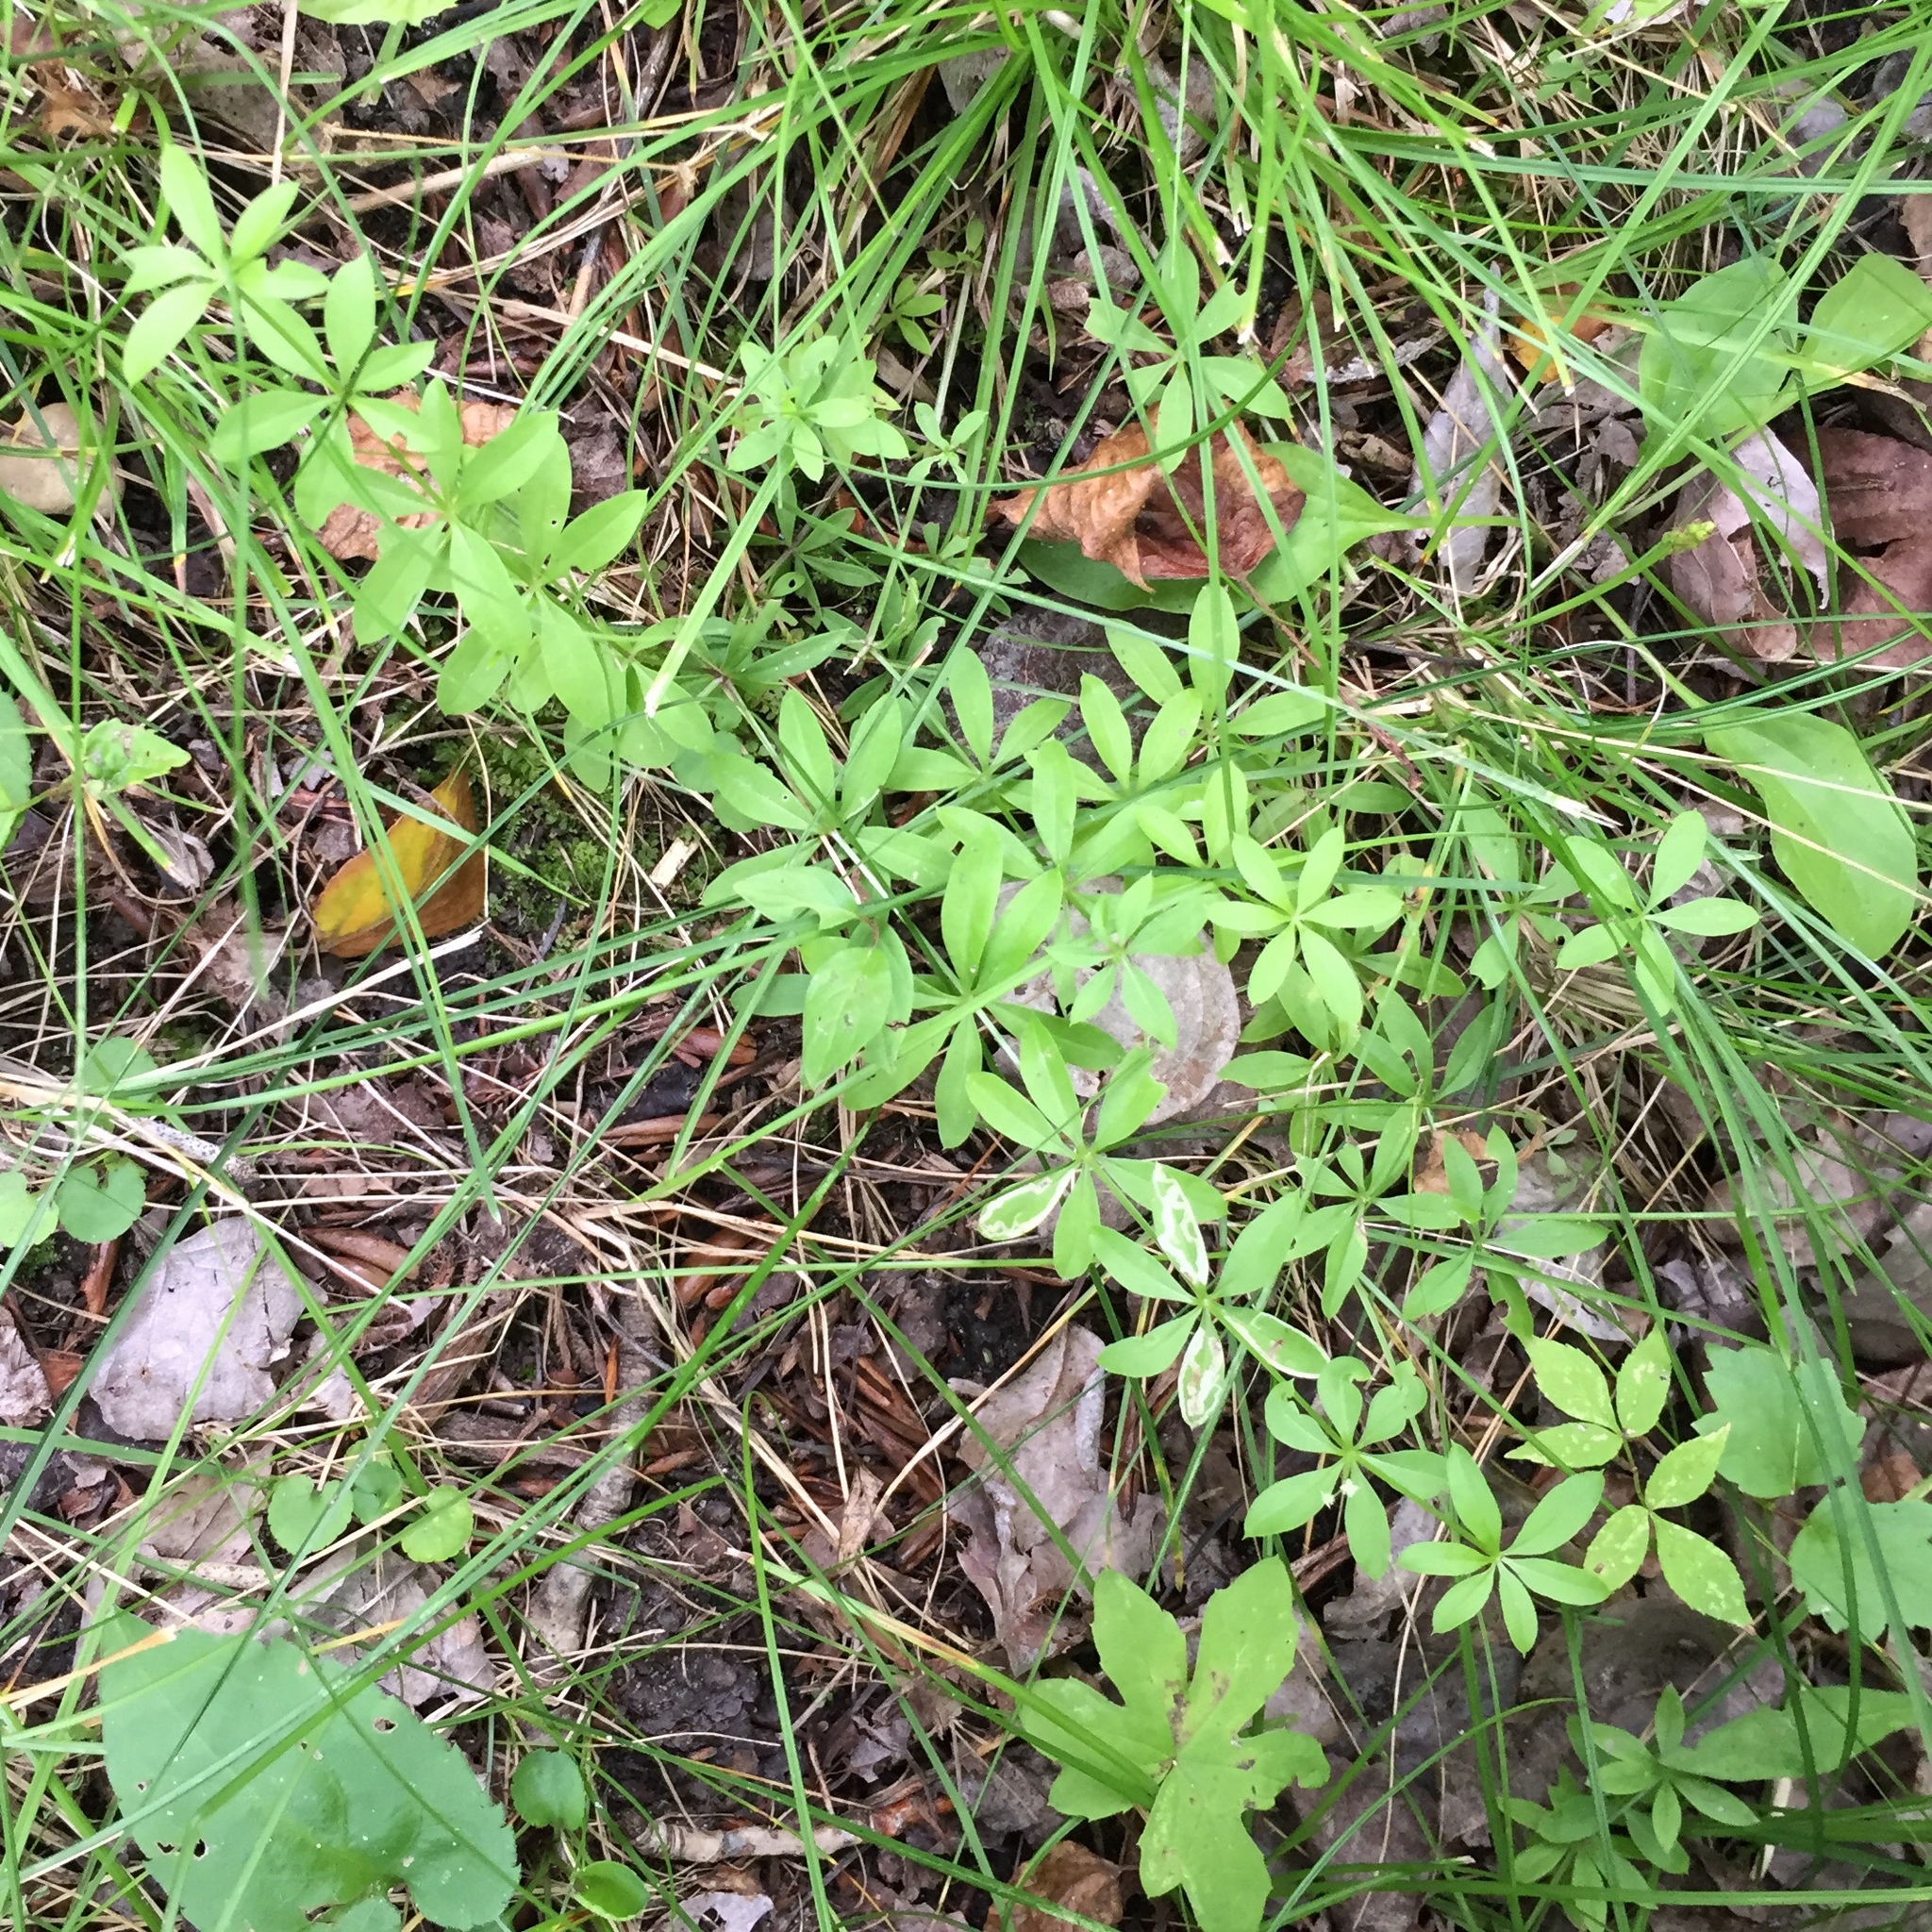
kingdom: Plantae
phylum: Tracheophyta
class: Magnoliopsida
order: Gentianales
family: Rubiaceae
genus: Galium
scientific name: Galium triflorum
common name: Fragrant bedstraw
